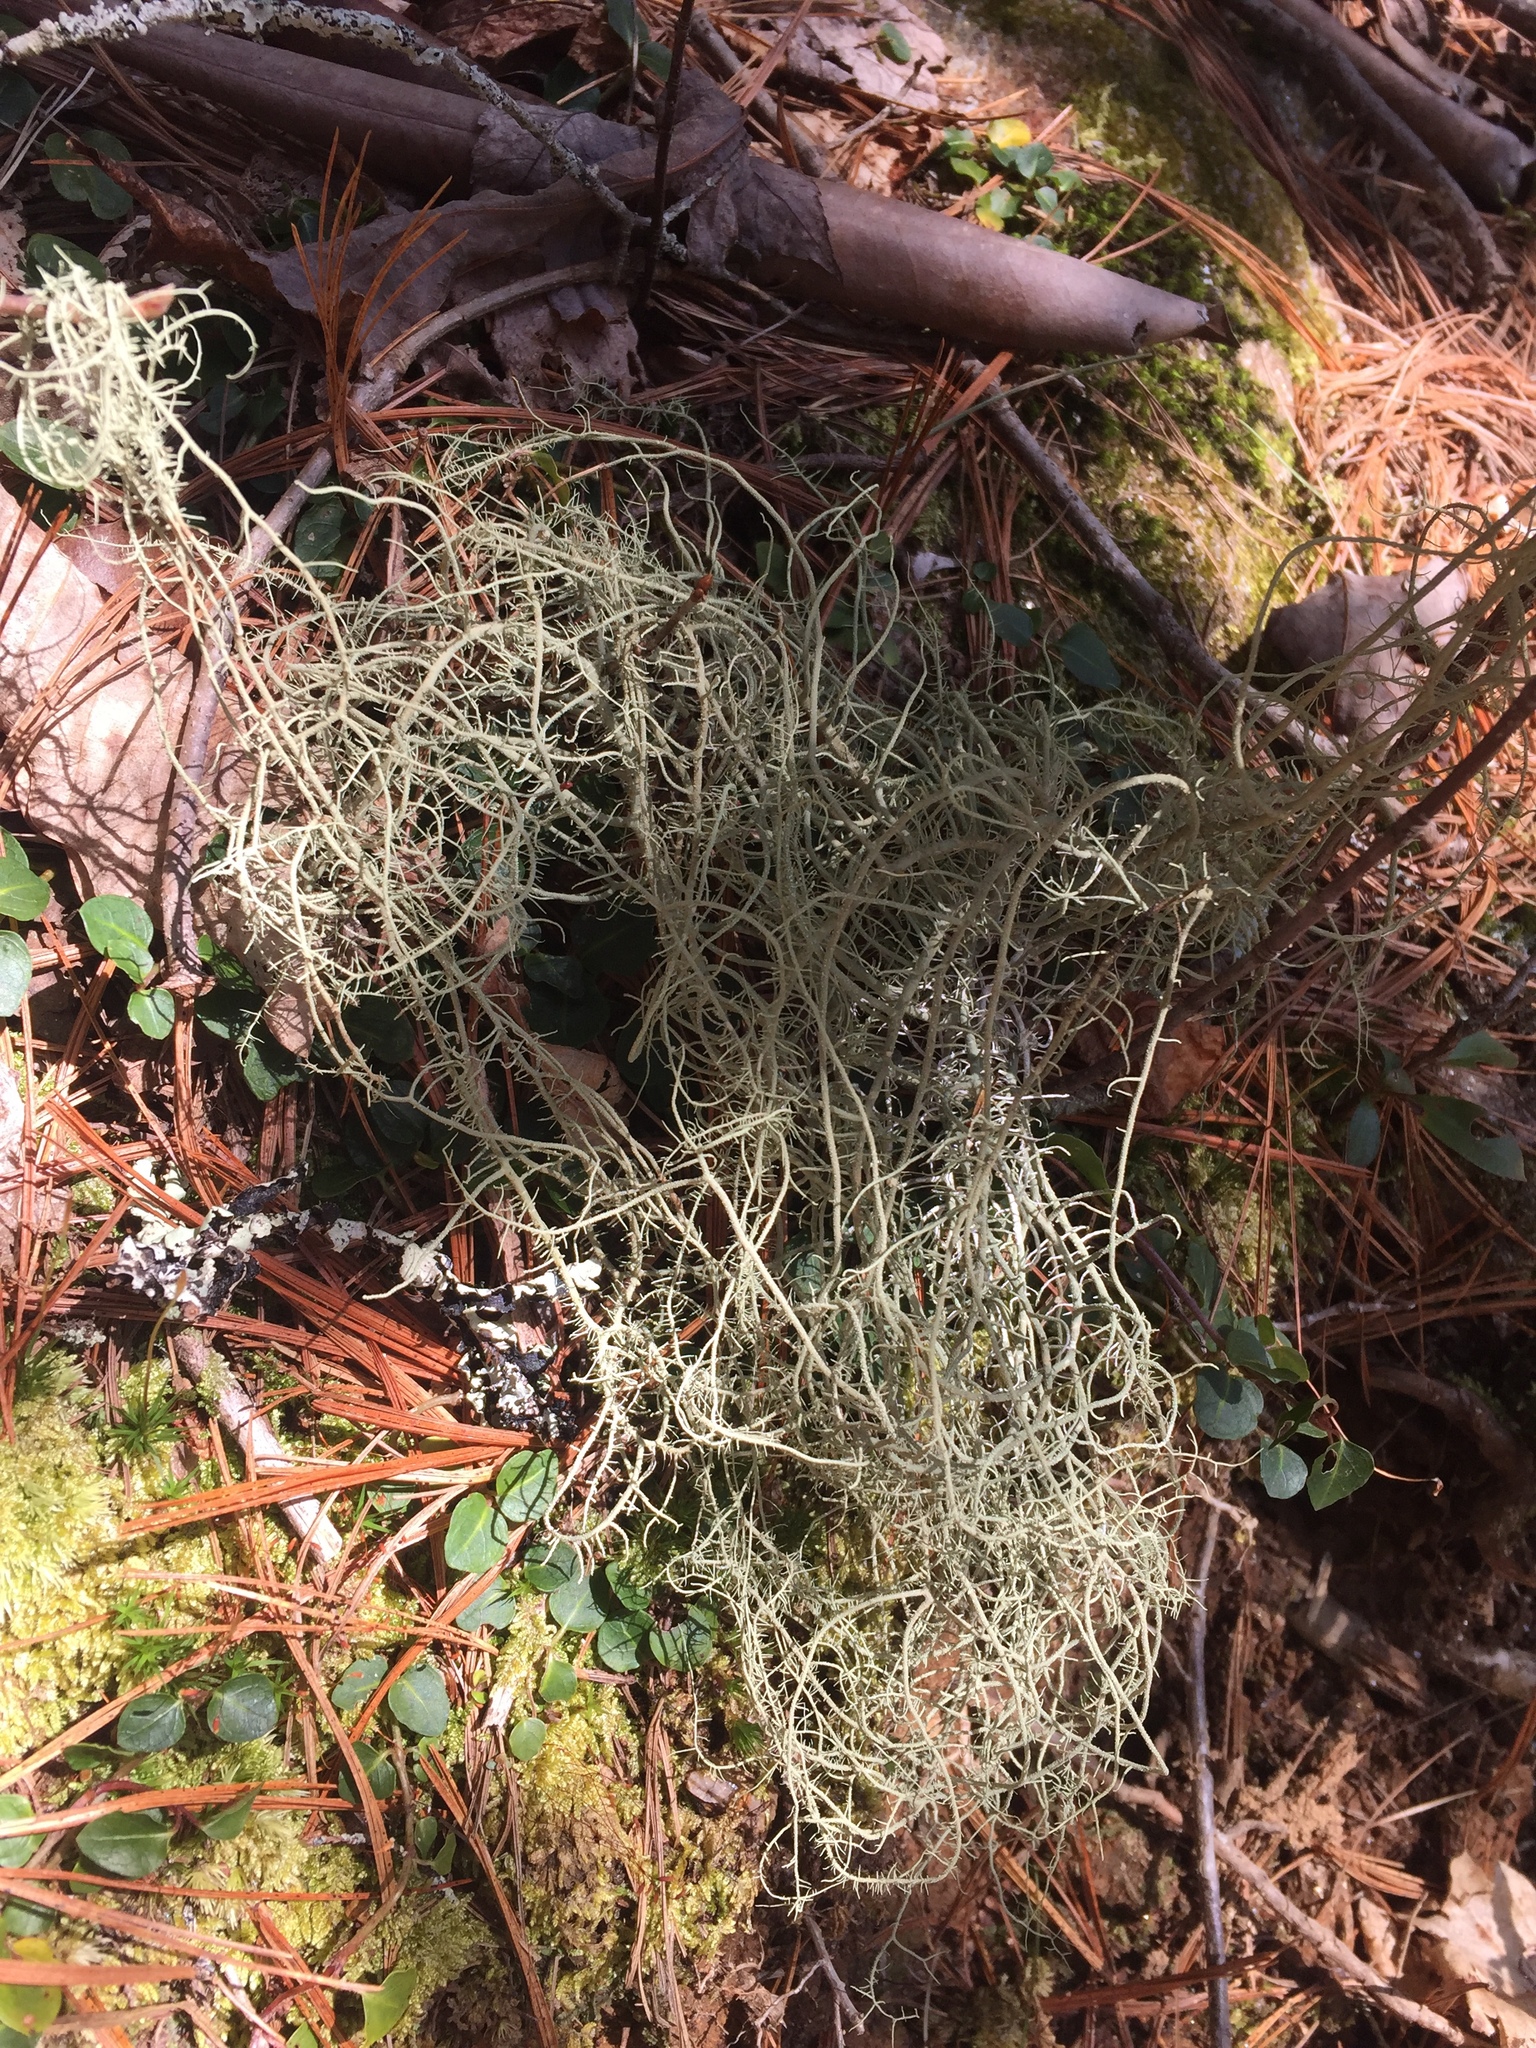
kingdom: Fungi
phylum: Ascomycota
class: Lecanoromycetes
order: Lecanorales
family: Parmeliaceae
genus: Usnea
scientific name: Usnea
